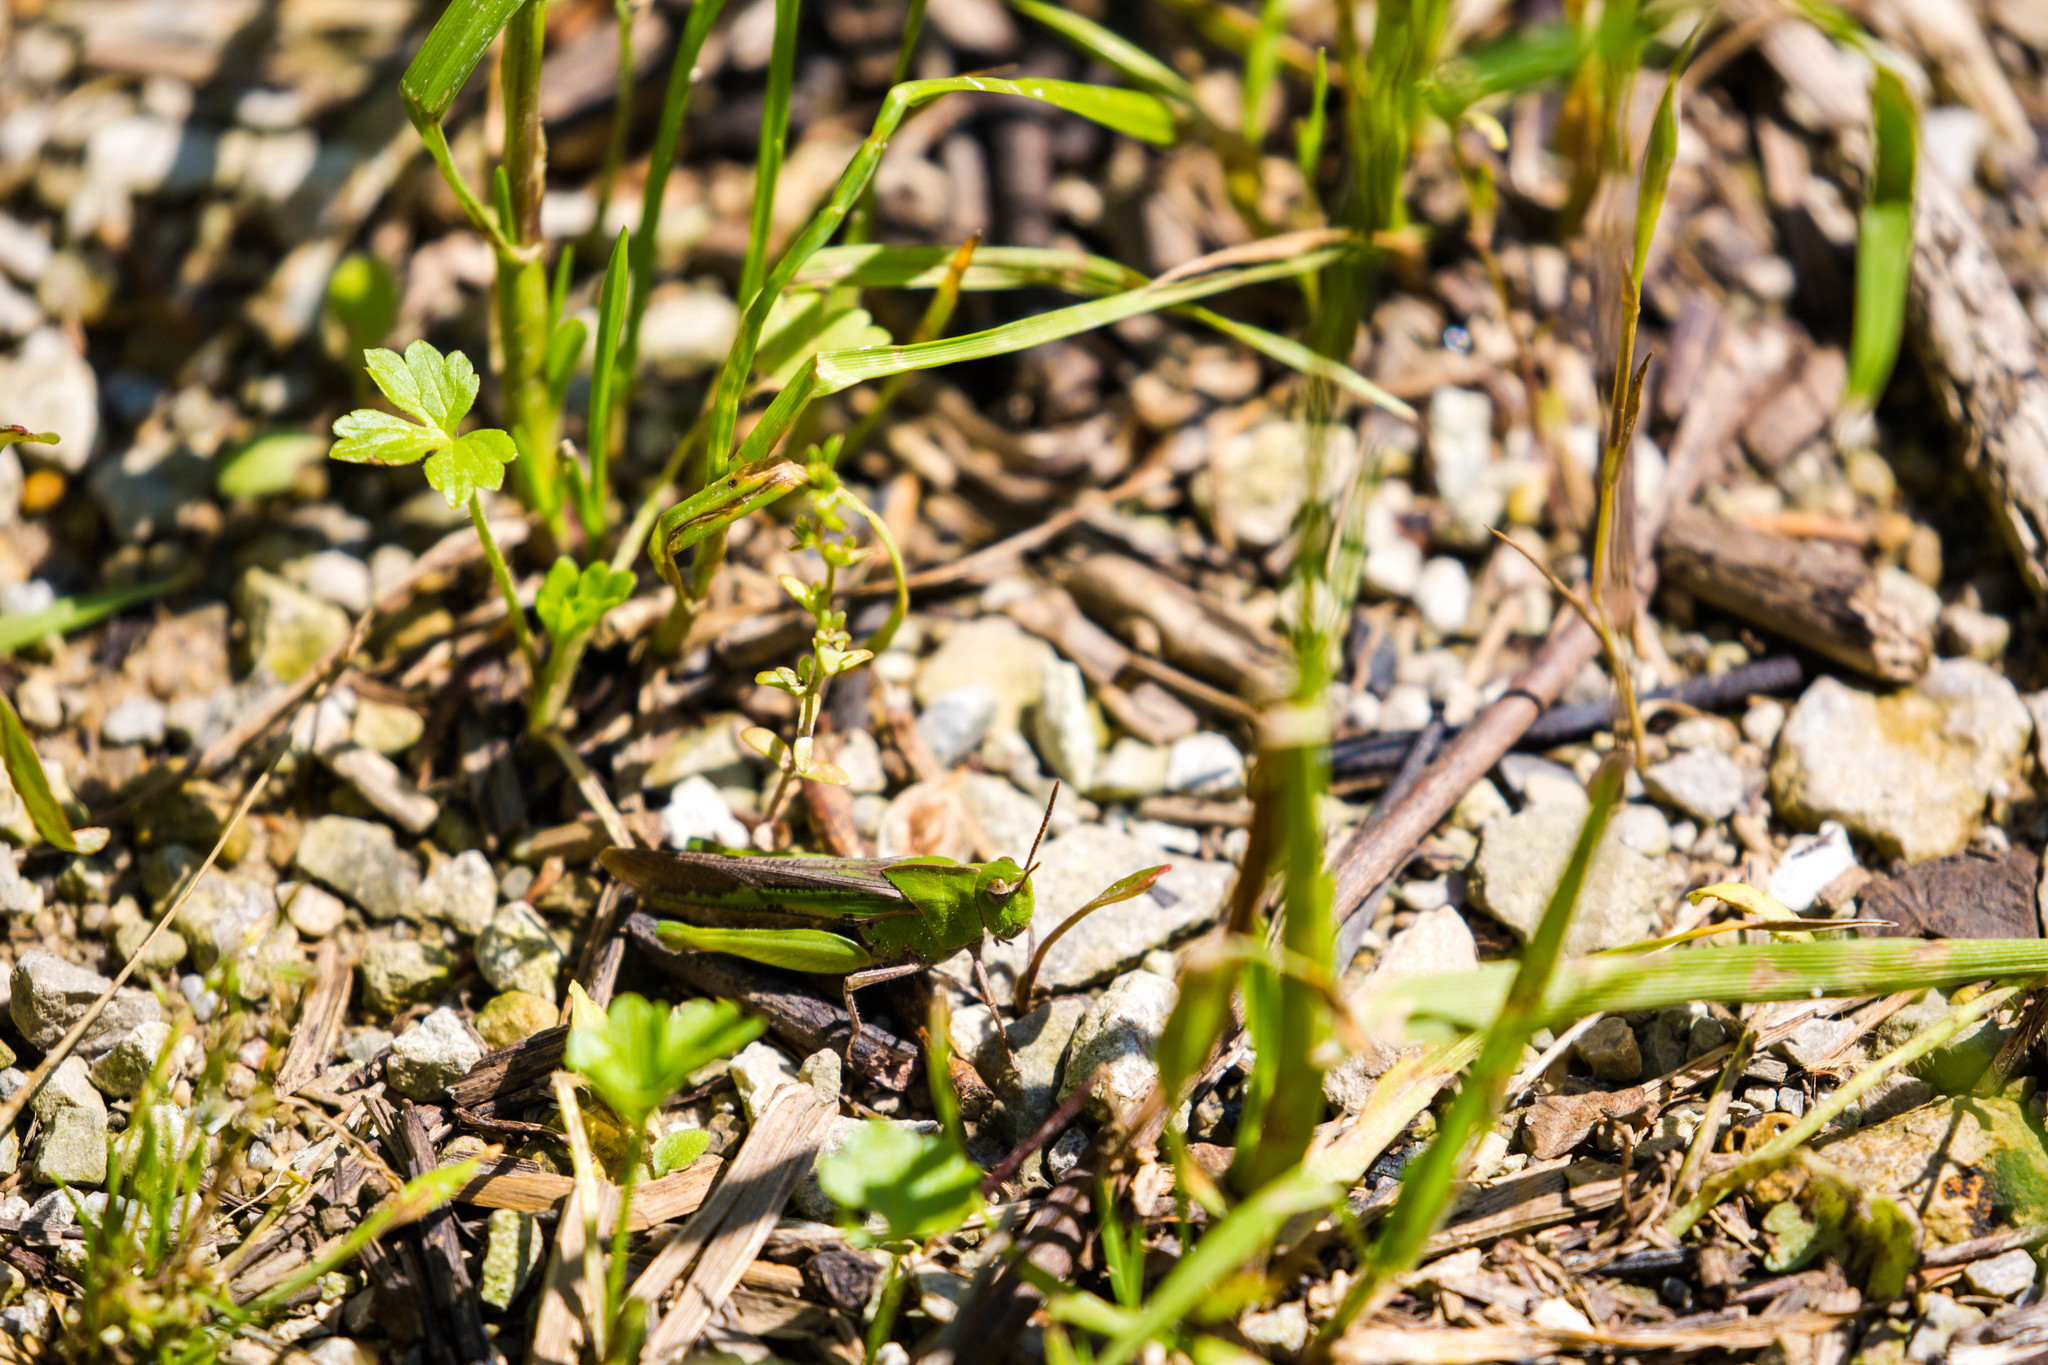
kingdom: Animalia
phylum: Arthropoda
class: Insecta
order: Orthoptera
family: Acrididae
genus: Chortophaga
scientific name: Chortophaga viridifasciata
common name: Green-striped grasshopper
